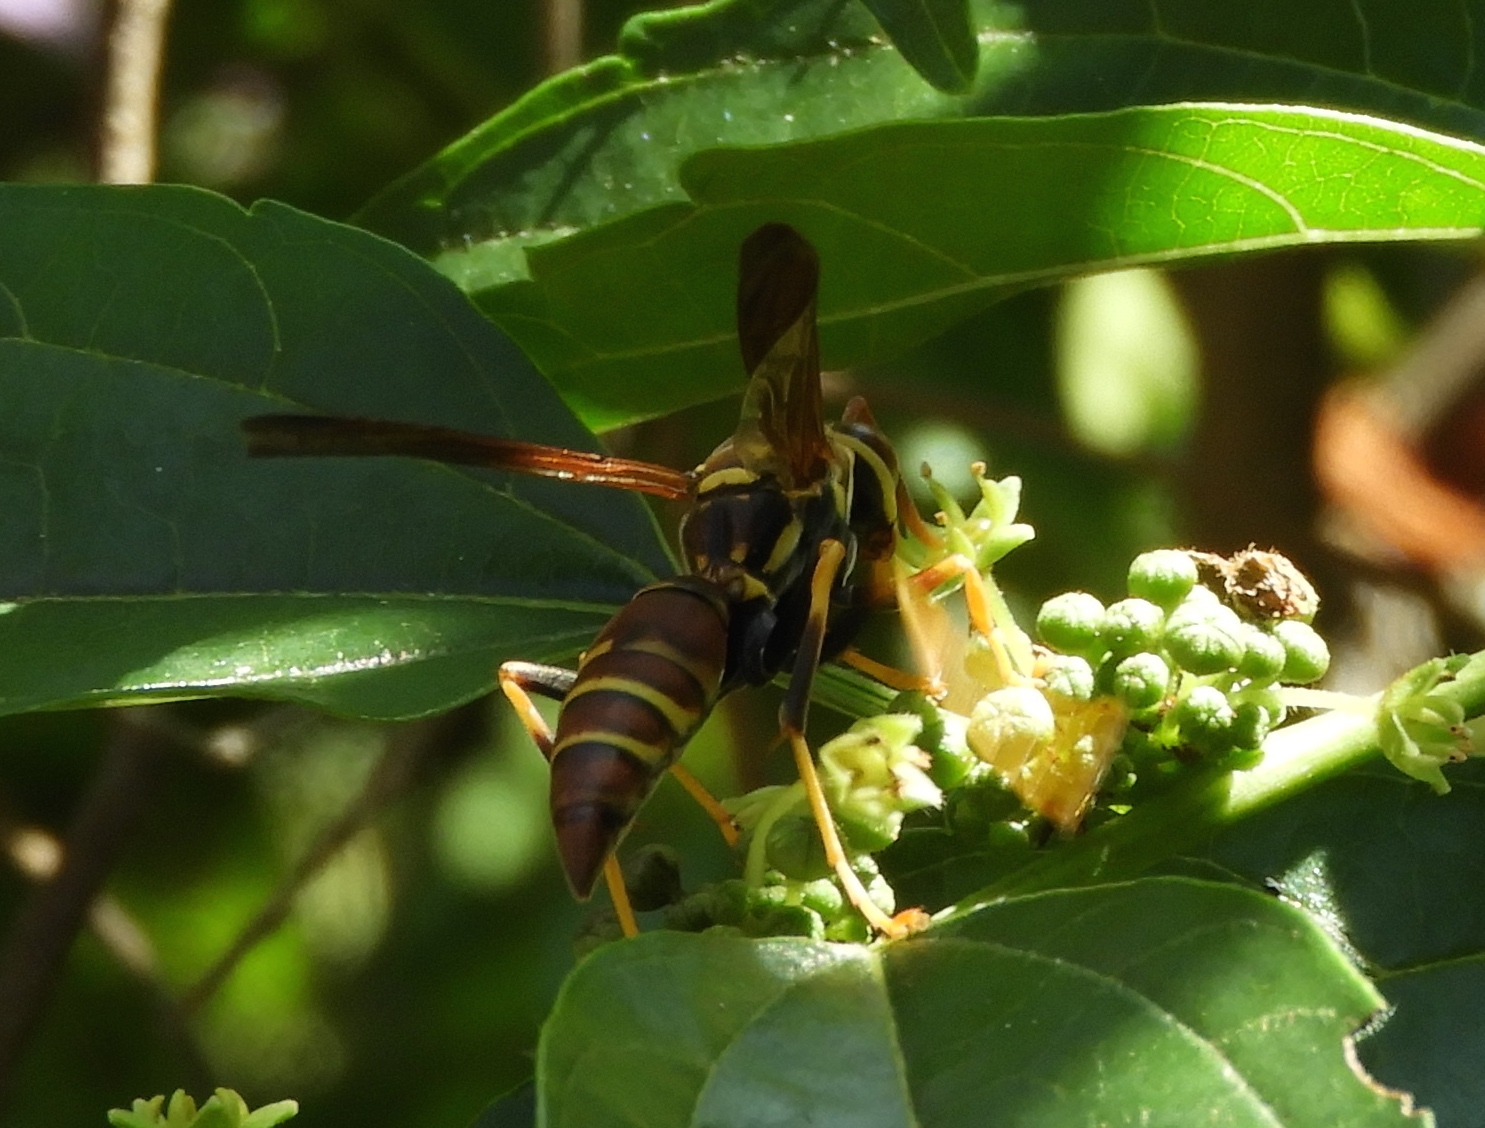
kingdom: Animalia
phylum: Arthropoda
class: Insecta
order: Hymenoptera
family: Eumenidae
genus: Polistes
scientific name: Polistes instabilis
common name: Unstable paper wasp
